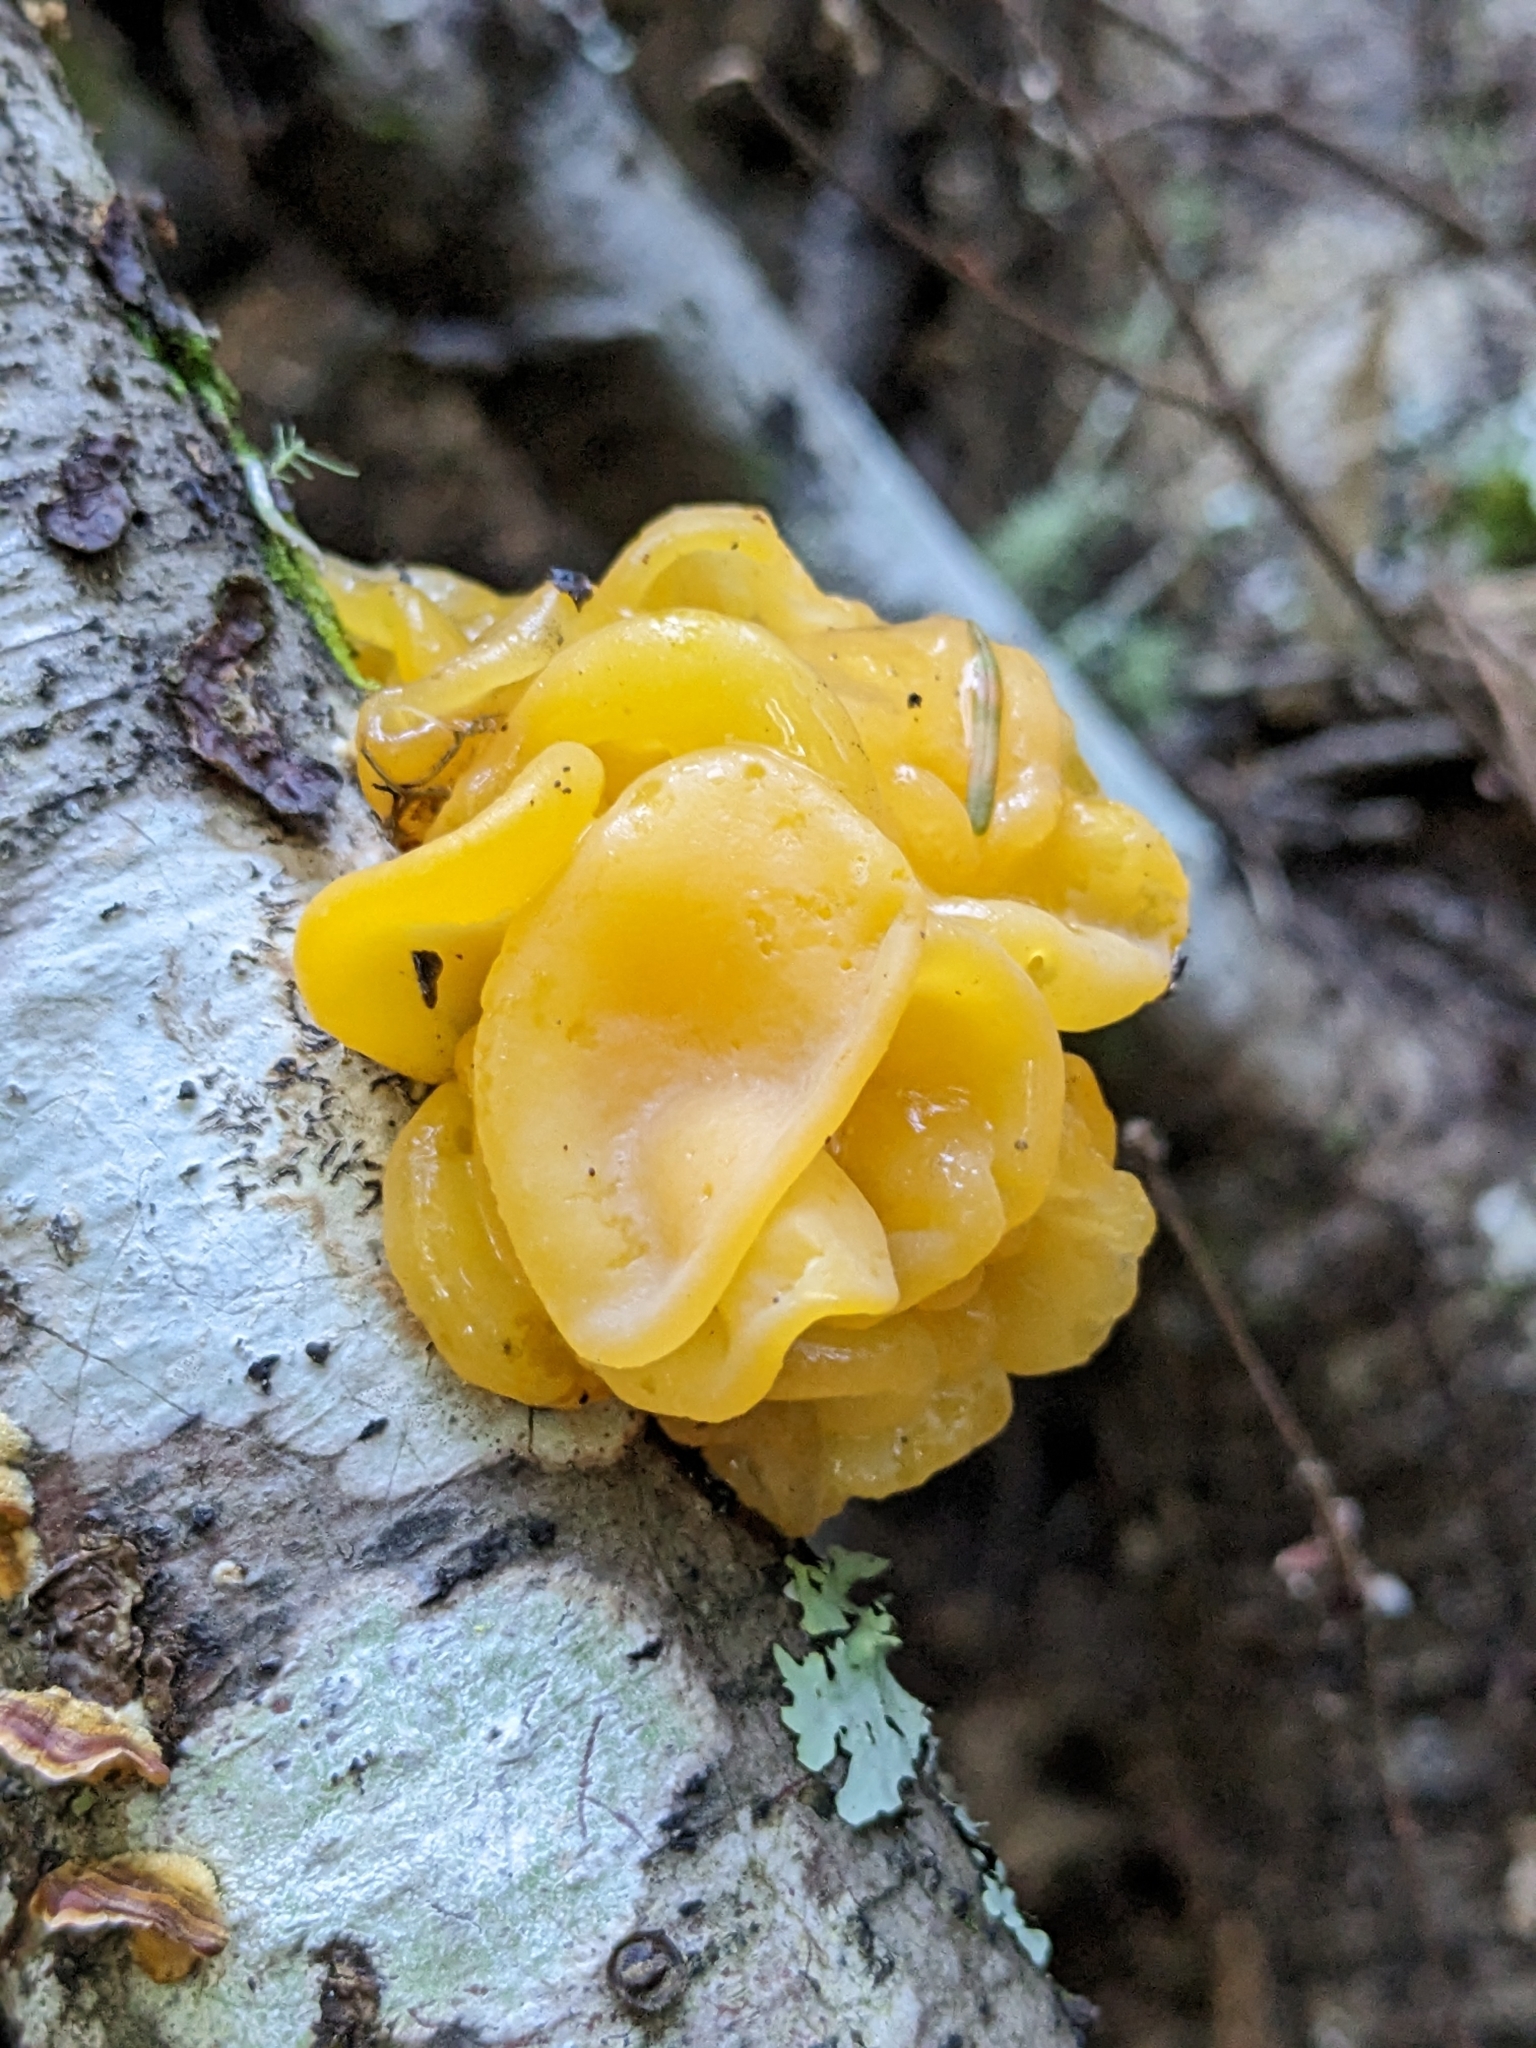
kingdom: Fungi
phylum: Basidiomycota
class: Tremellomycetes
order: Tremellales
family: Naemateliaceae
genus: Naematelia
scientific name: Naematelia aurantia
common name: Golden ear
